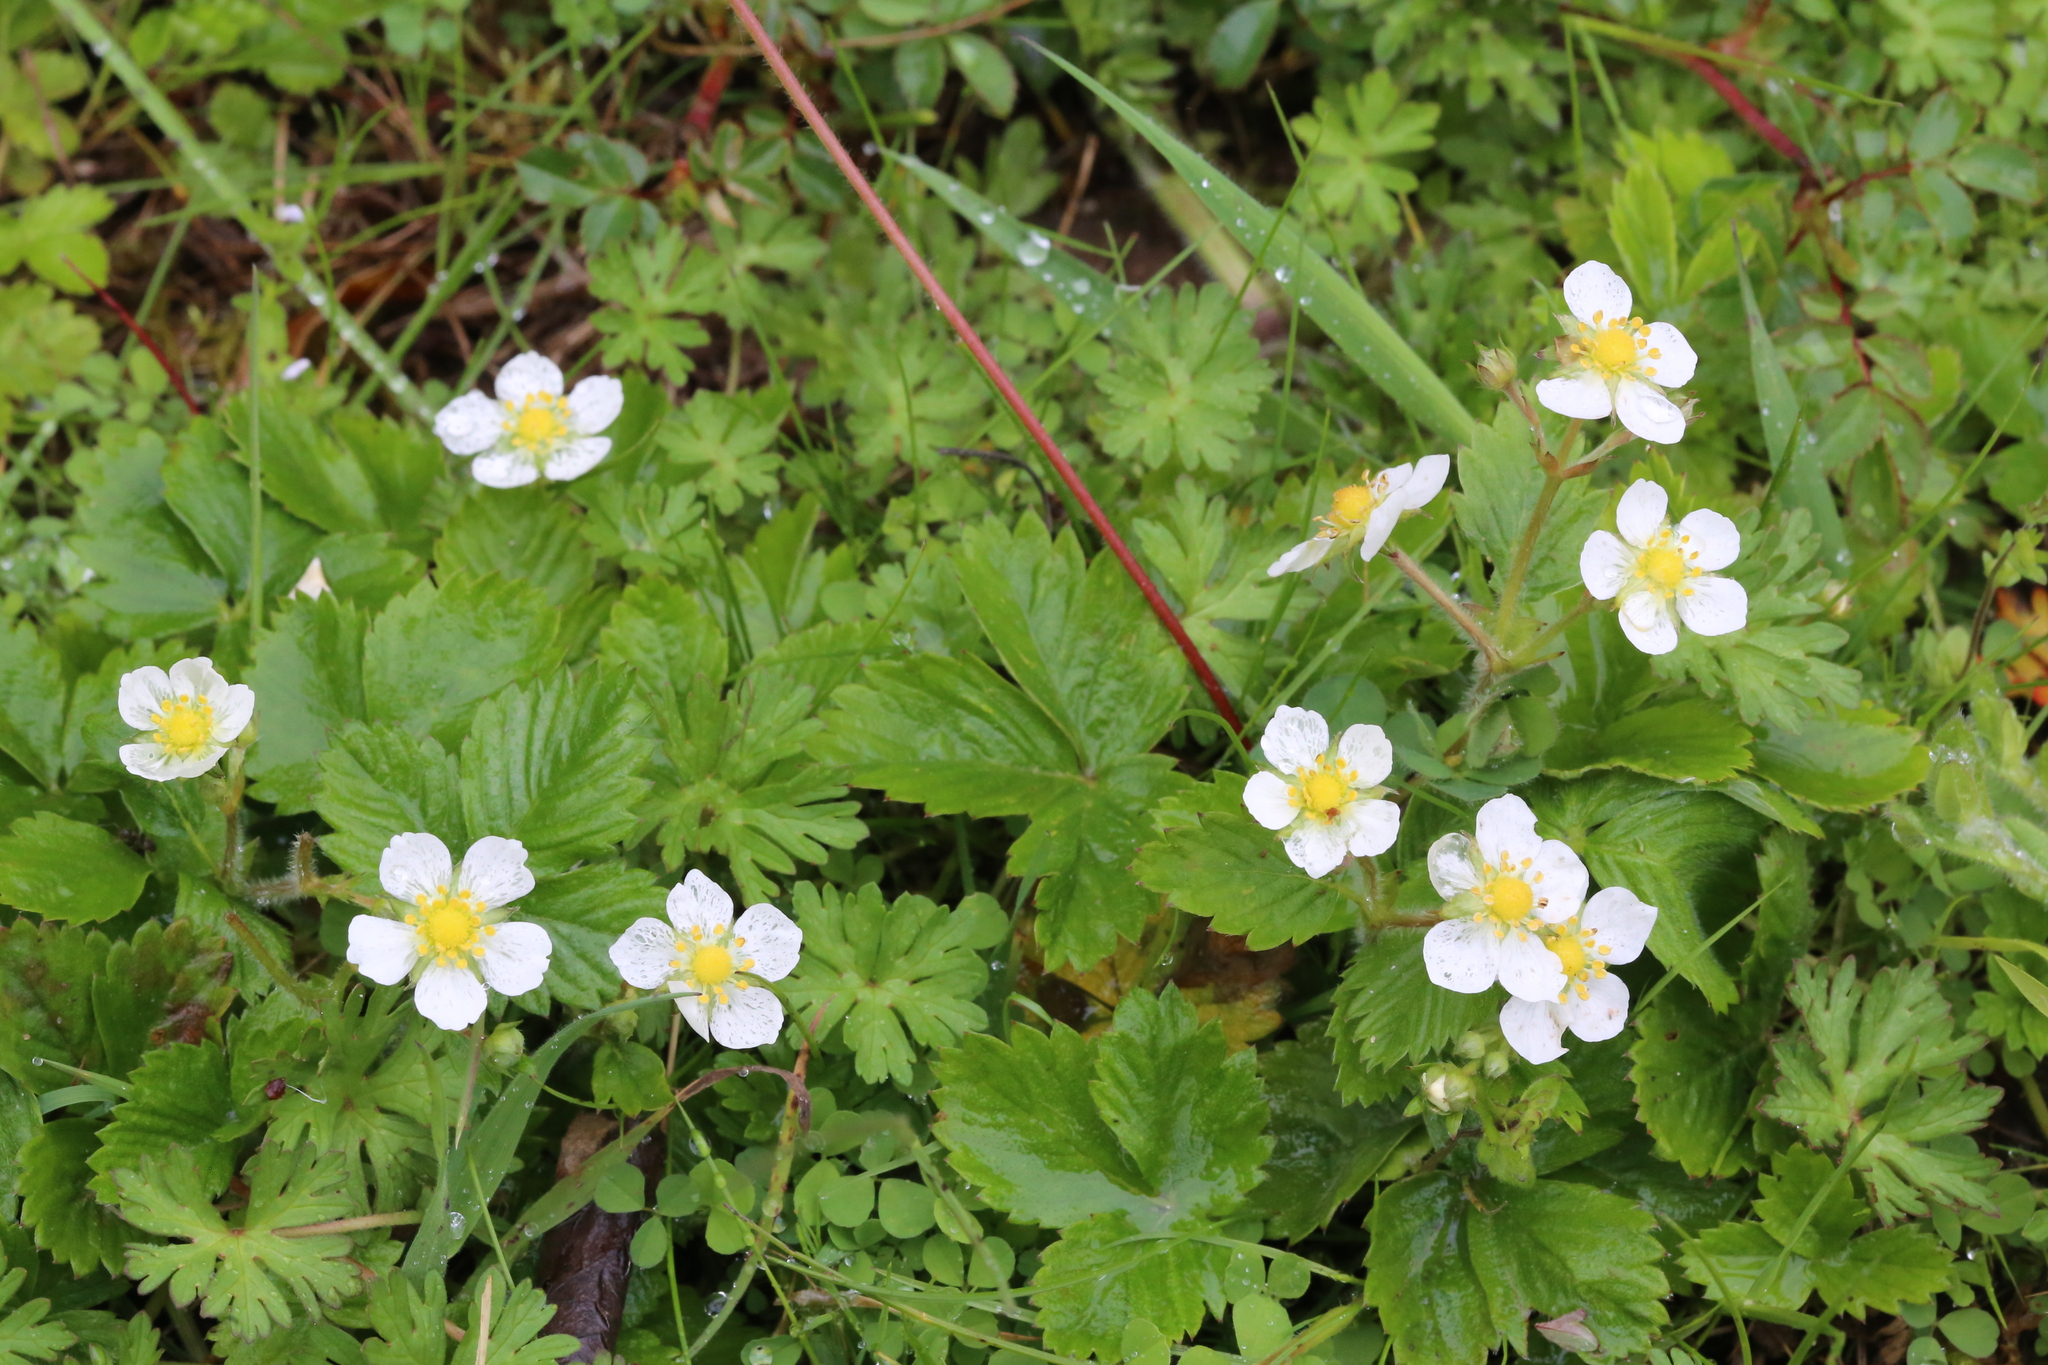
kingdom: Plantae
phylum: Tracheophyta
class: Magnoliopsida
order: Rosales
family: Rosaceae
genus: Fragaria
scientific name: Fragaria vesca
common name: Wild strawberry
